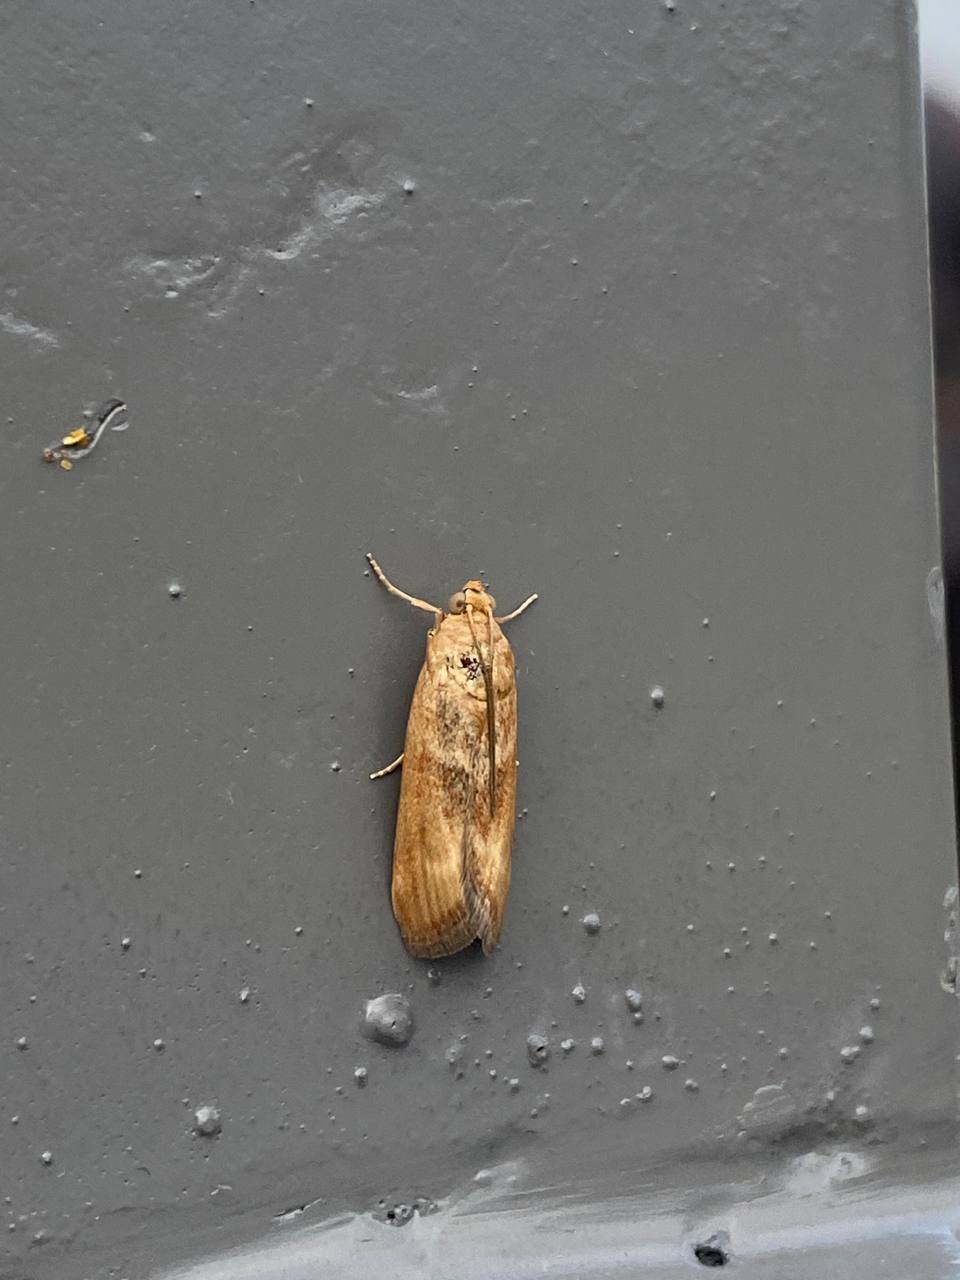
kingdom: Animalia
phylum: Arthropoda
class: Insecta
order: Lepidoptera
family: Pyralidae
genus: Pterothrixidia
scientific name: Pterothrixidia rufella
